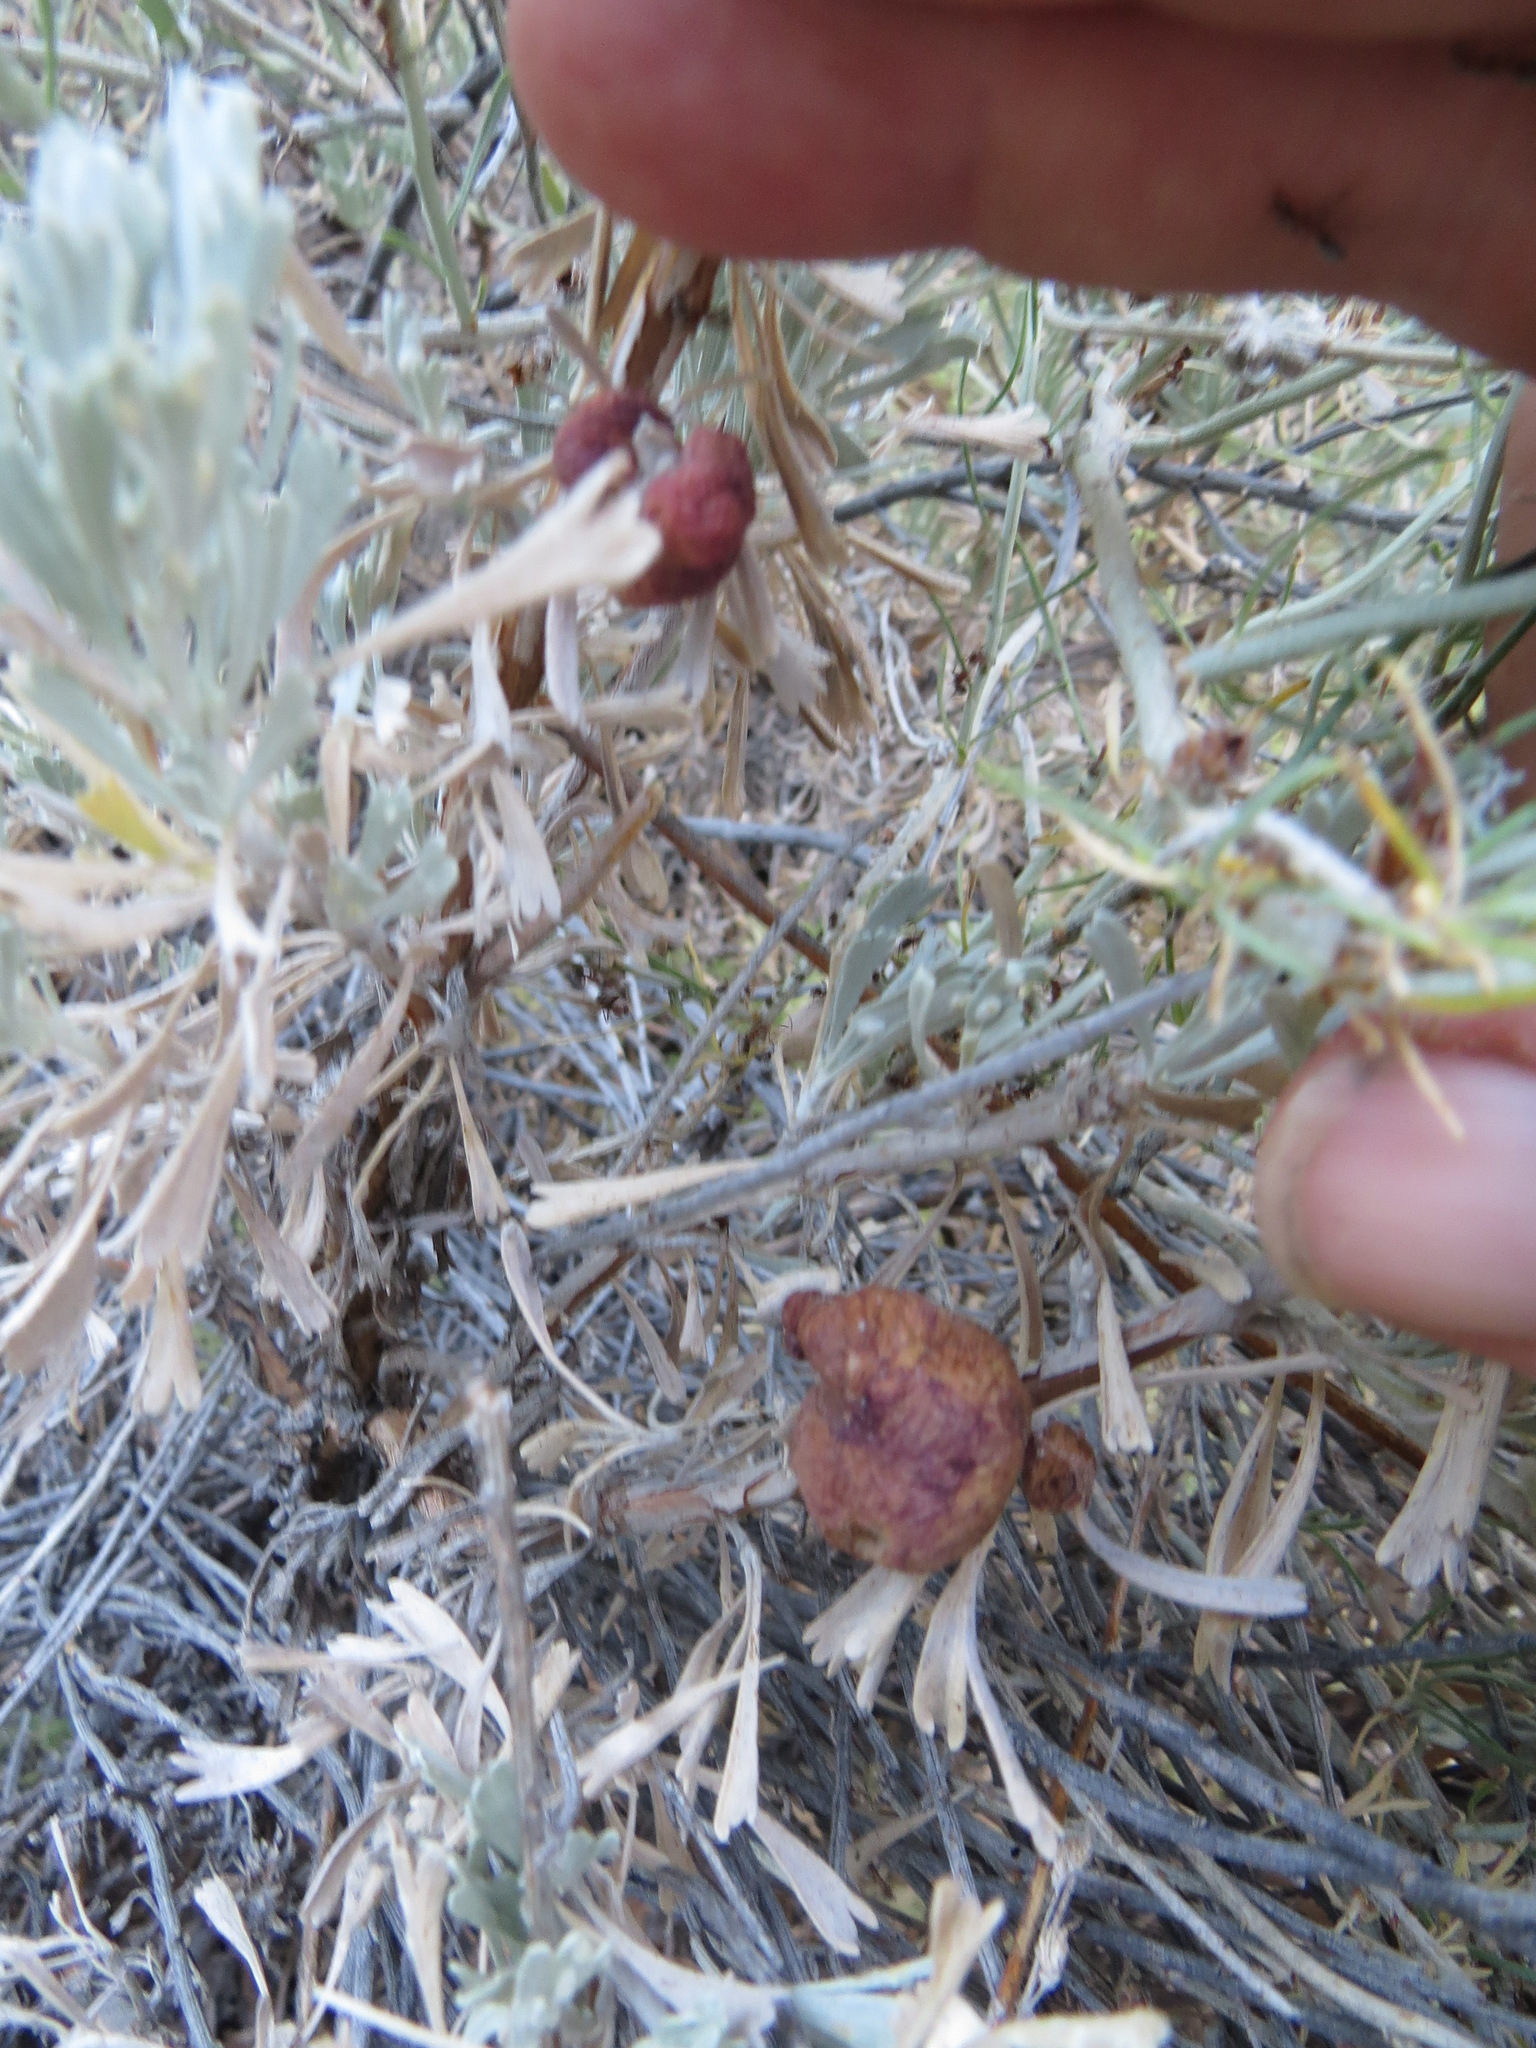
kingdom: Animalia
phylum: Arthropoda
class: Insecta
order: Diptera
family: Cecidomyiidae
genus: Rhopalomyia
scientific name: Rhopalomyia pomum
